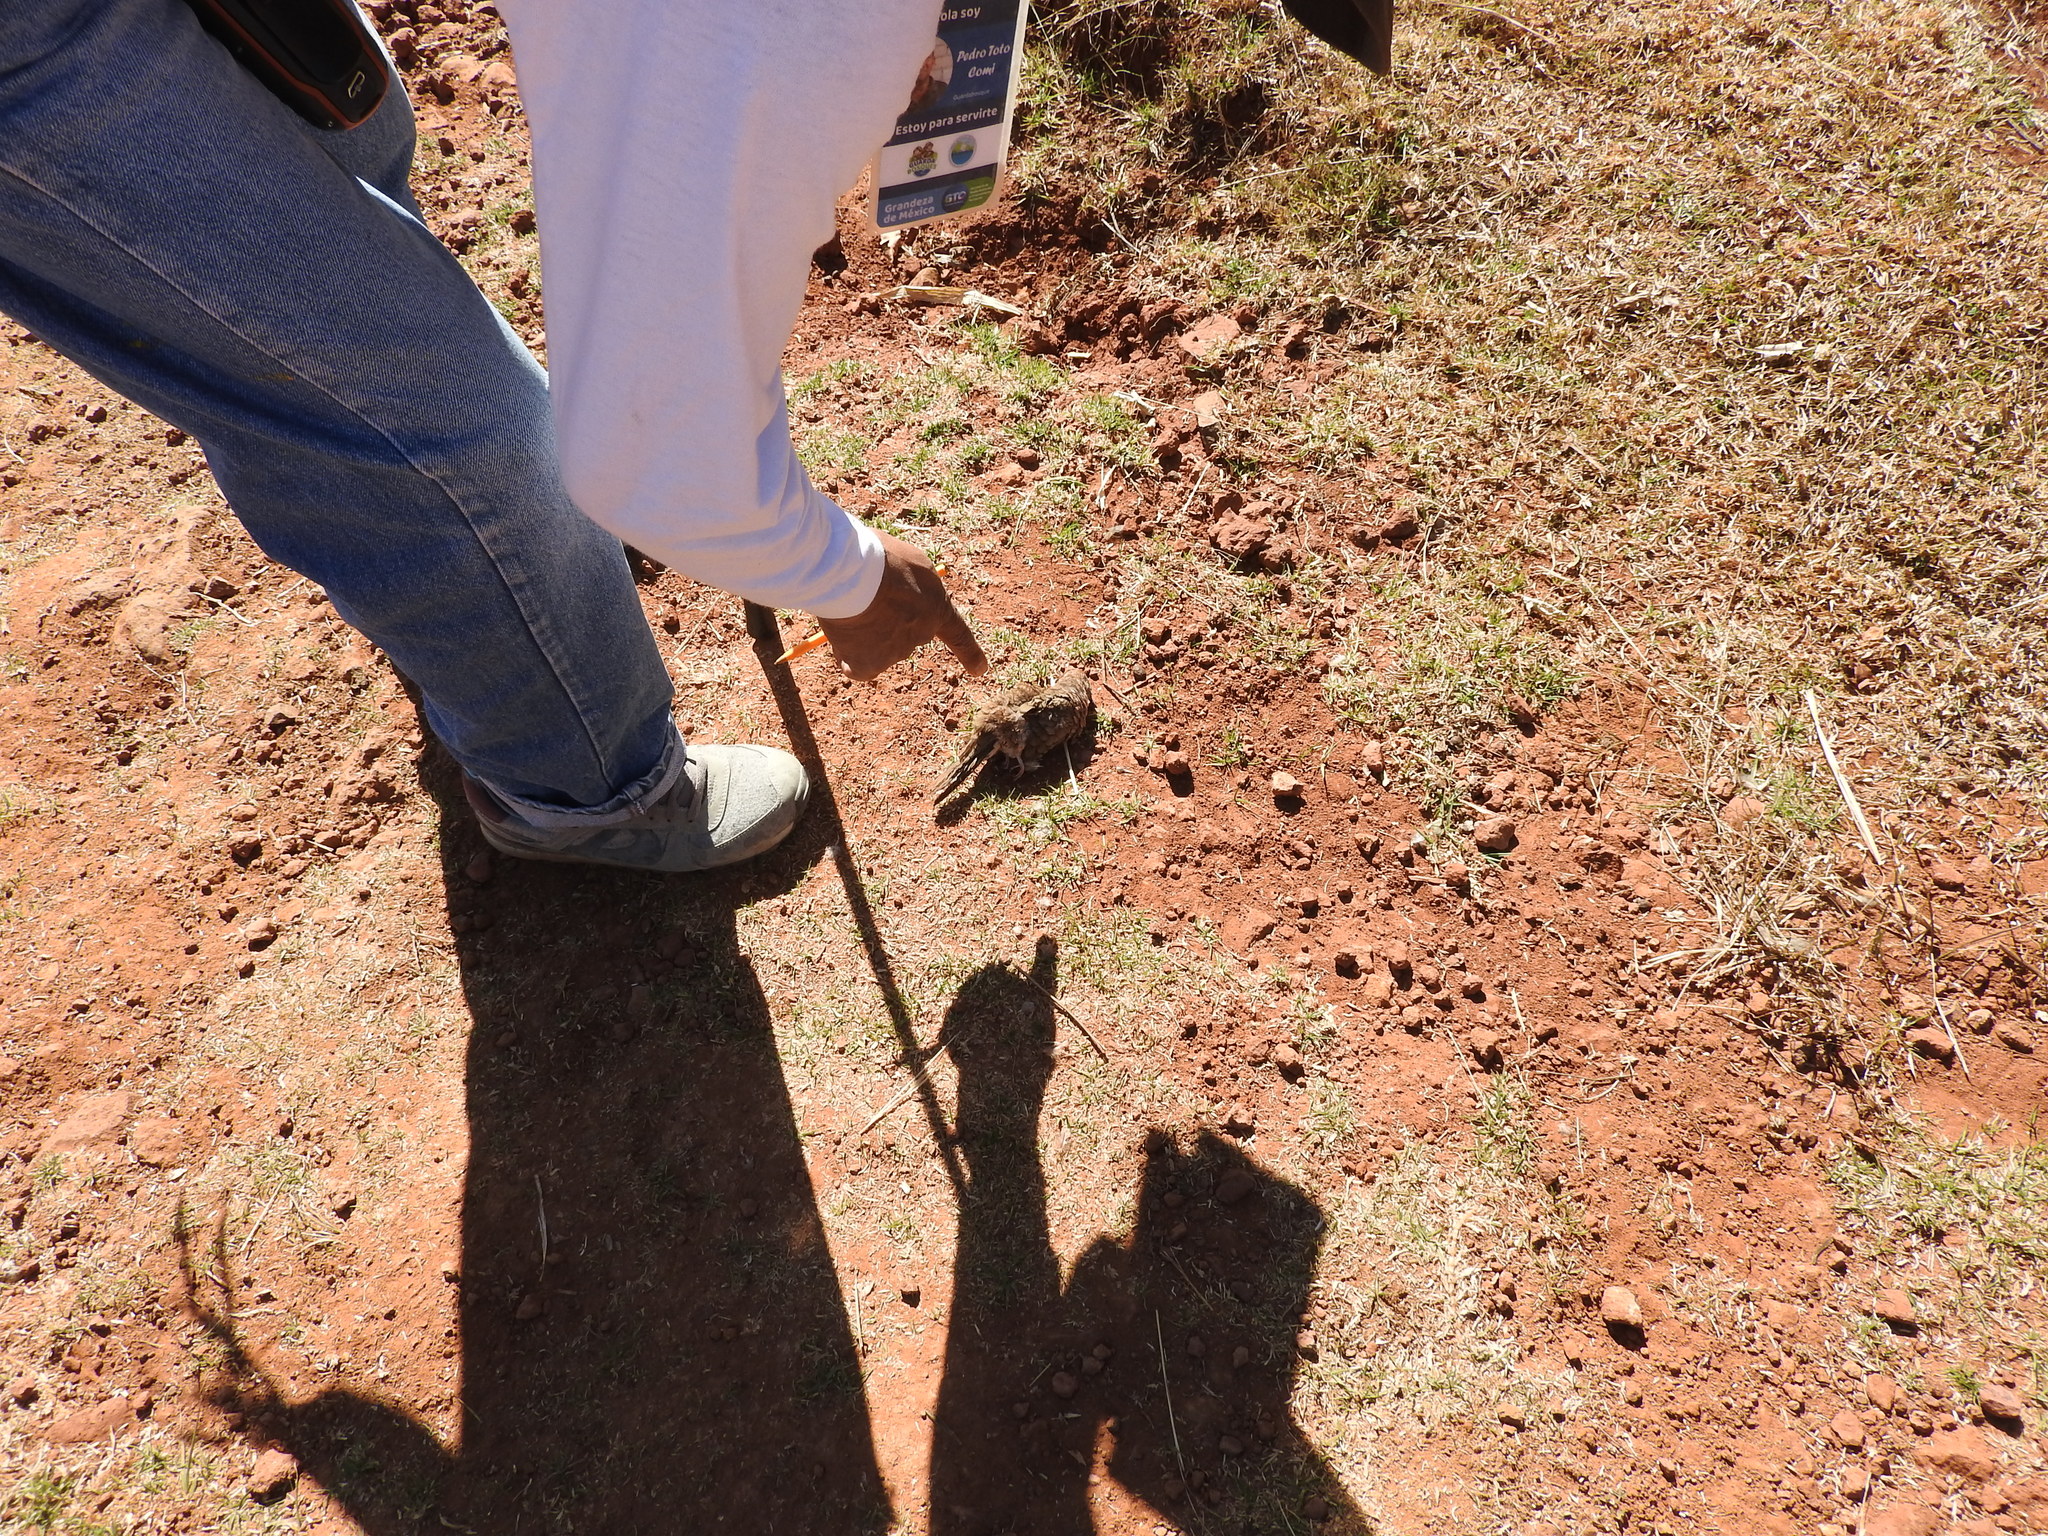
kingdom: Animalia
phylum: Chordata
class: Aves
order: Columbiformes
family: Columbidae
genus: Columbina
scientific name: Columbina inca
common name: Inca dove
